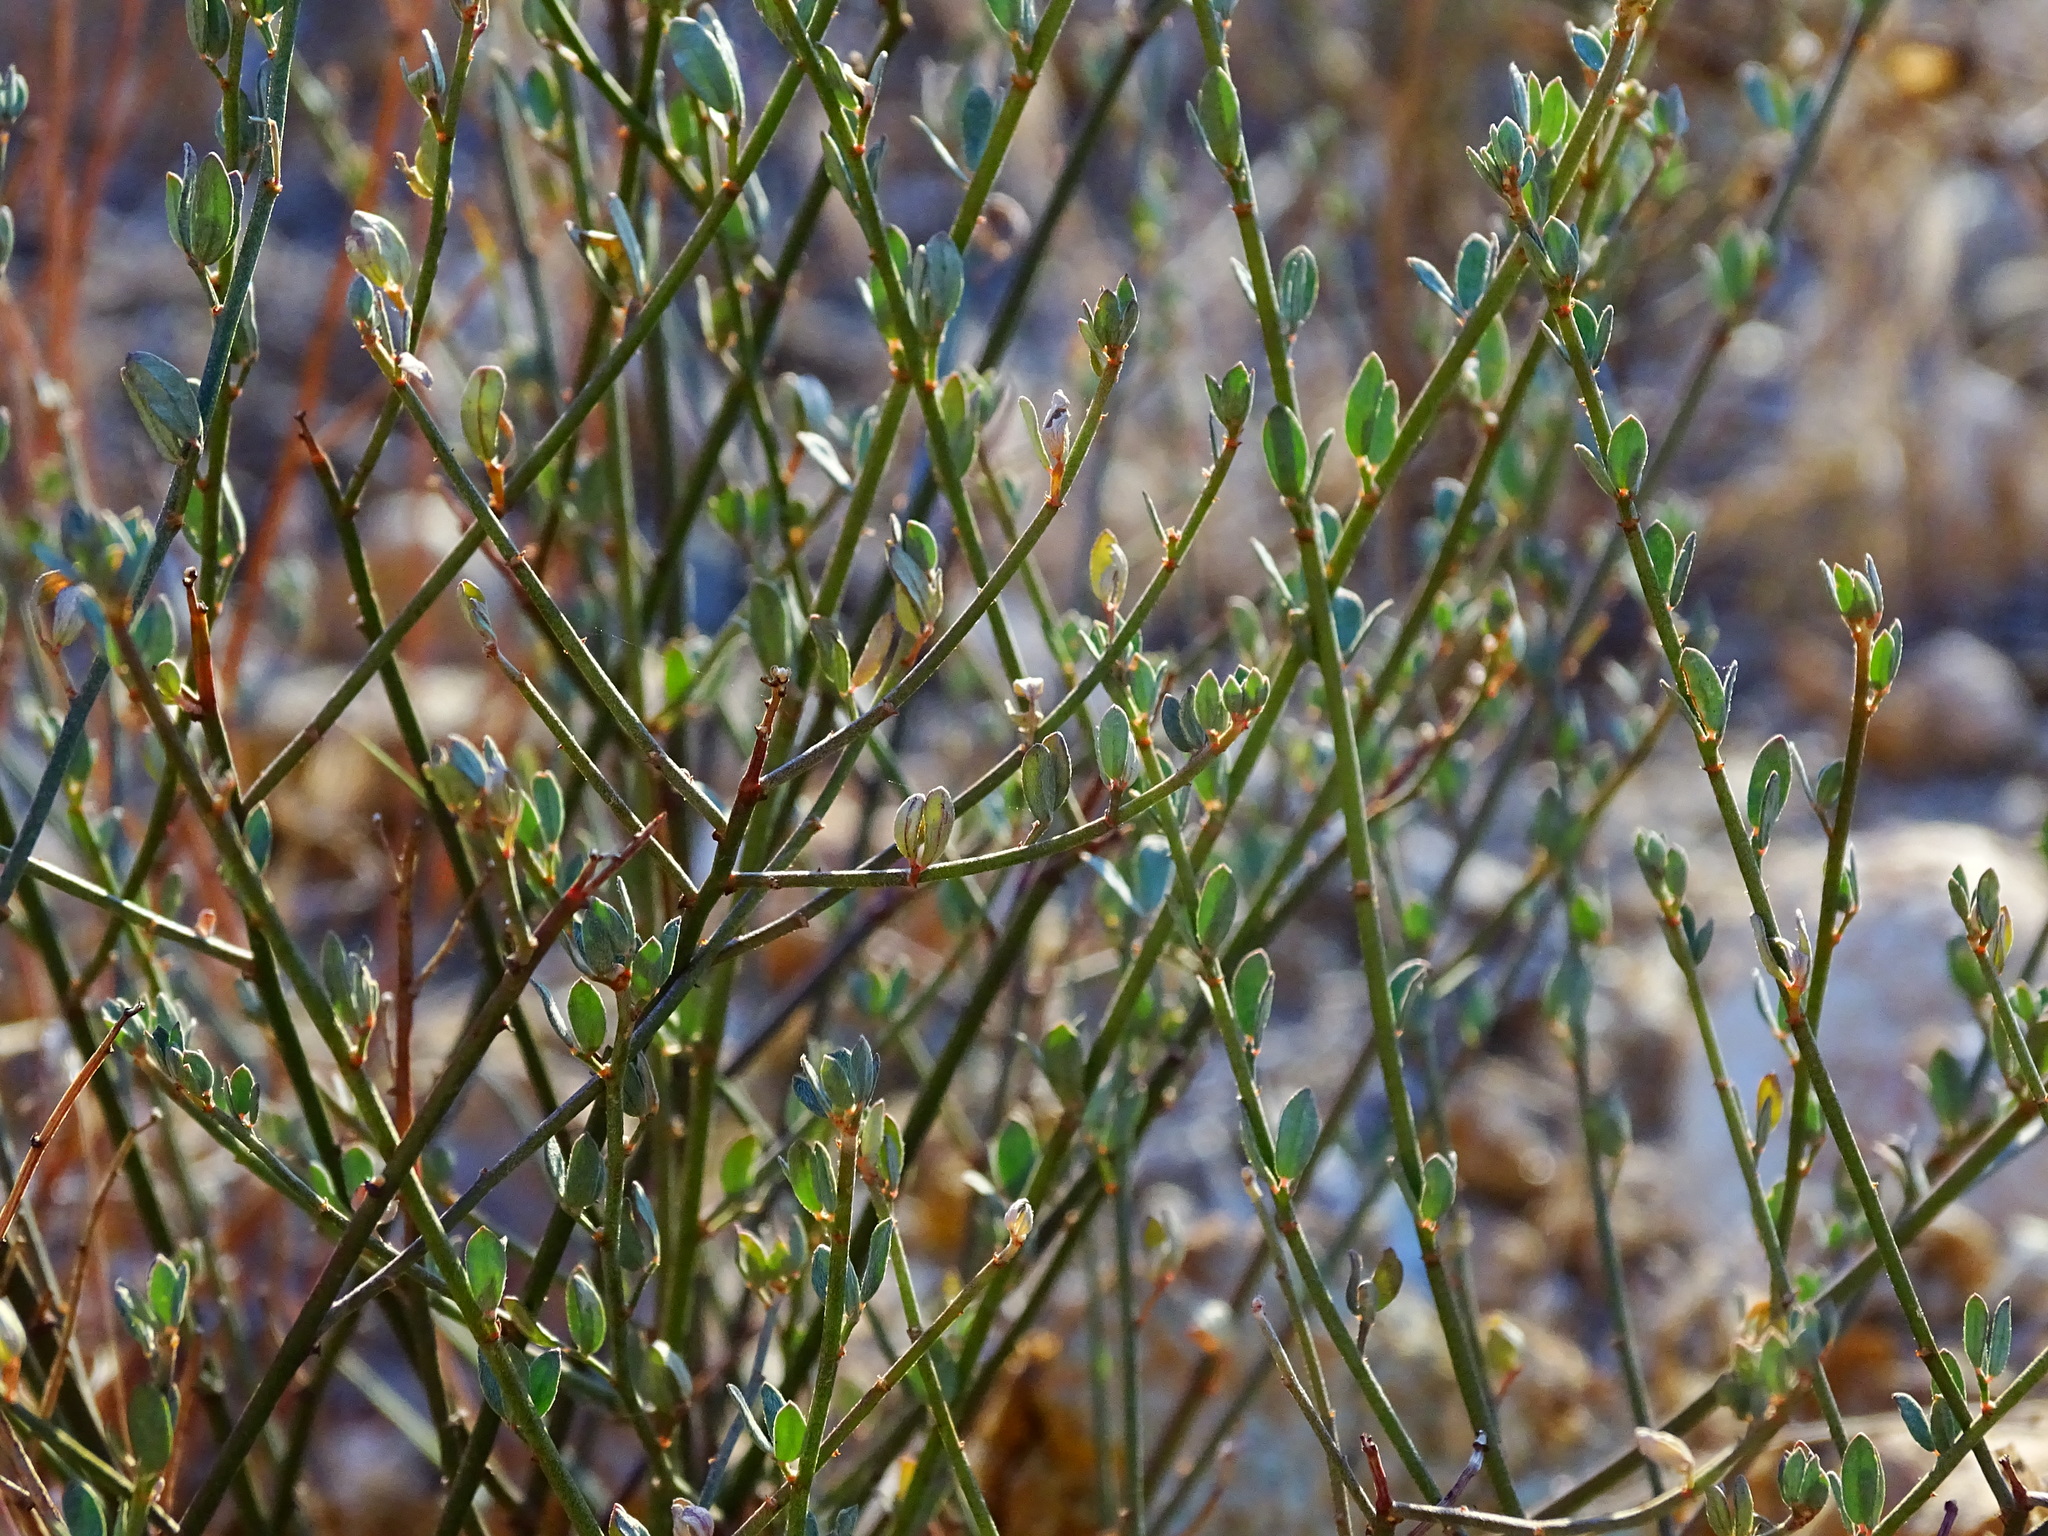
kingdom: Plantae
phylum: Tracheophyta
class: Magnoliopsida
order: Fabales
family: Fabaceae
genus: Acmispon
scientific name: Acmispon glaber
